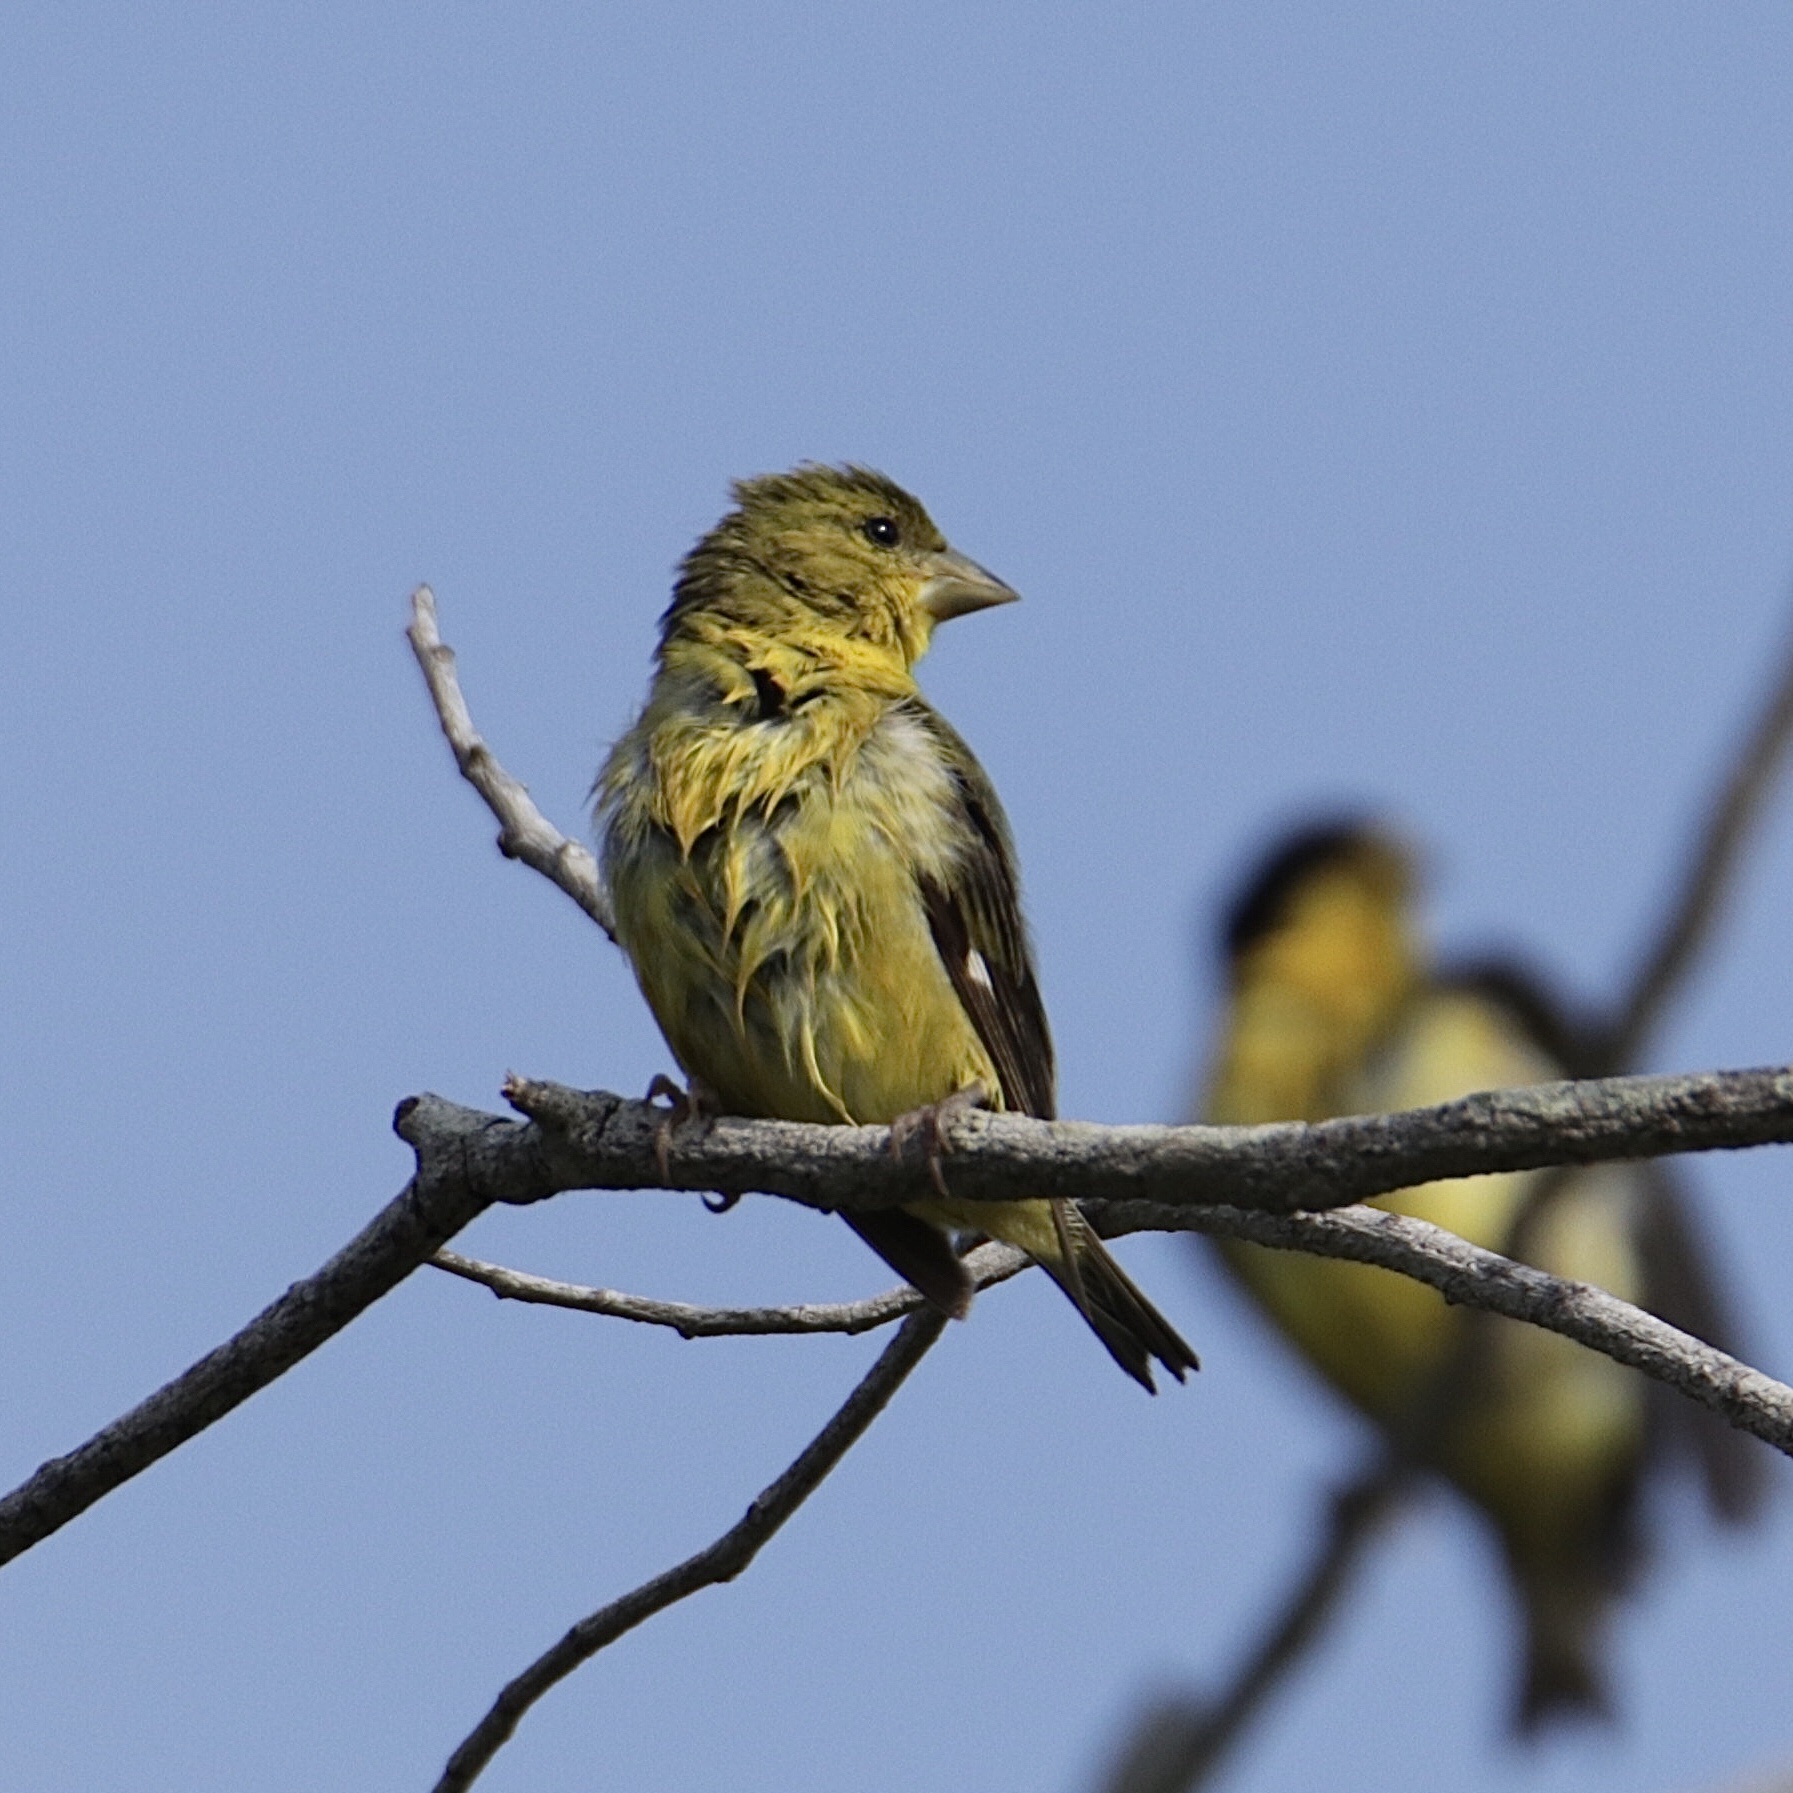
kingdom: Animalia
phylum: Chordata
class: Aves
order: Passeriformes
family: Fringillidae
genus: Spinus
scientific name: Spinus psaltria
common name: Lesser goldfinch
